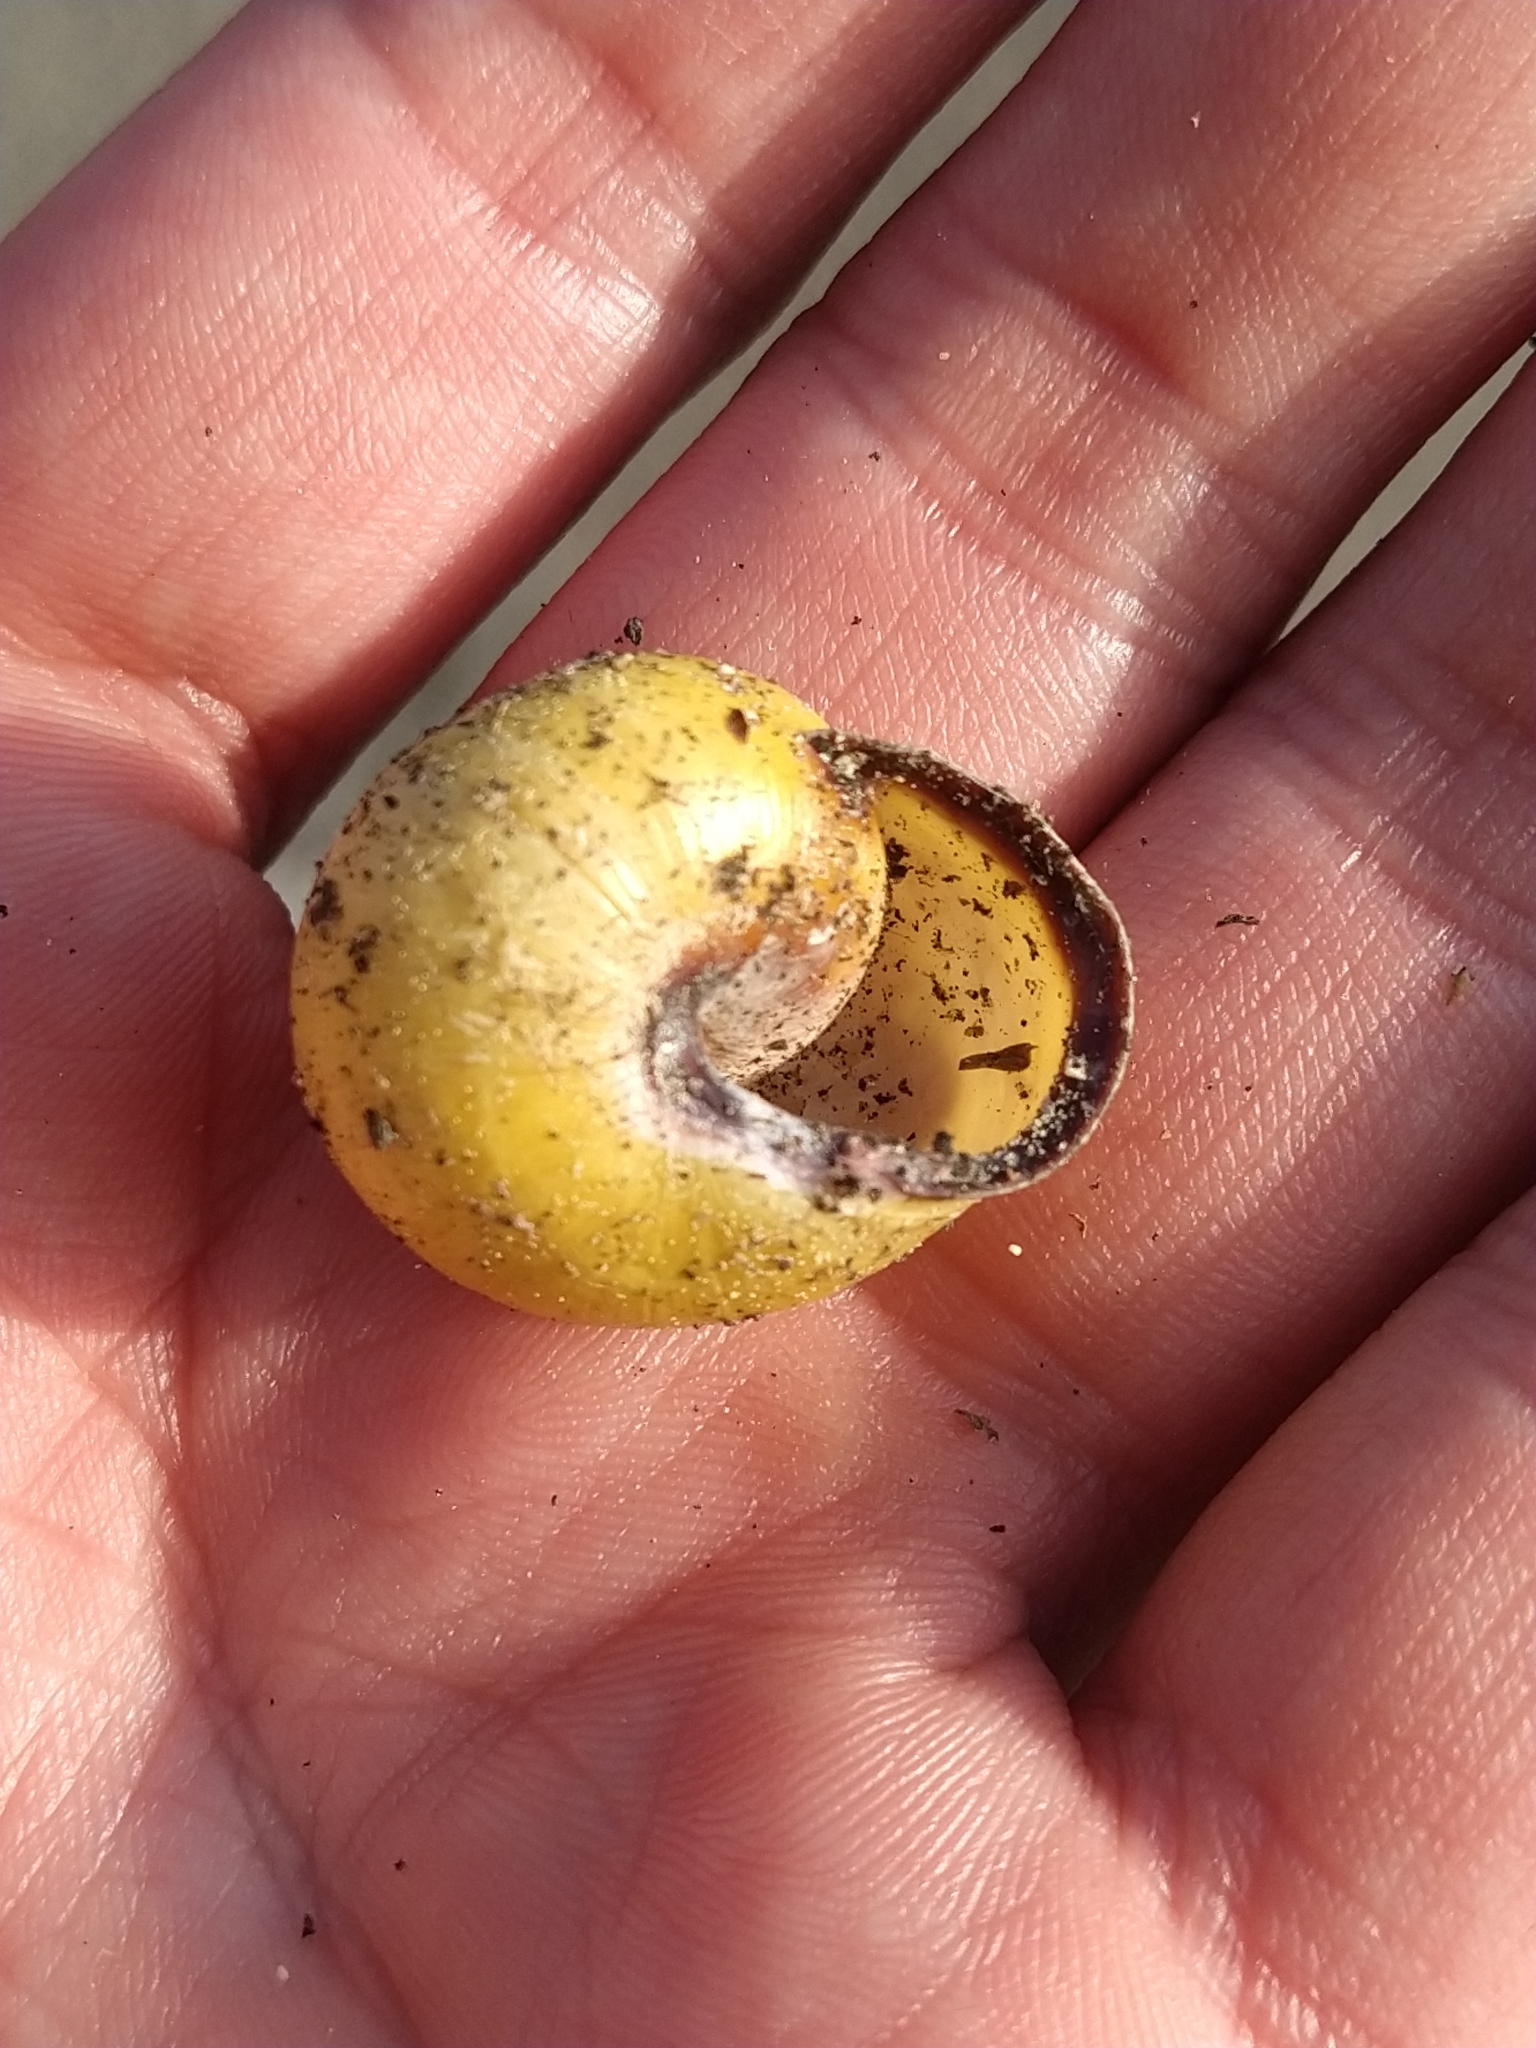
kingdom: Animalia
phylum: Mollusca
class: Gastropoda
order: Stylommatophora
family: Helicidae
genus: Cepaea
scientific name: Cepaea nemoralis
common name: Grovesnail
